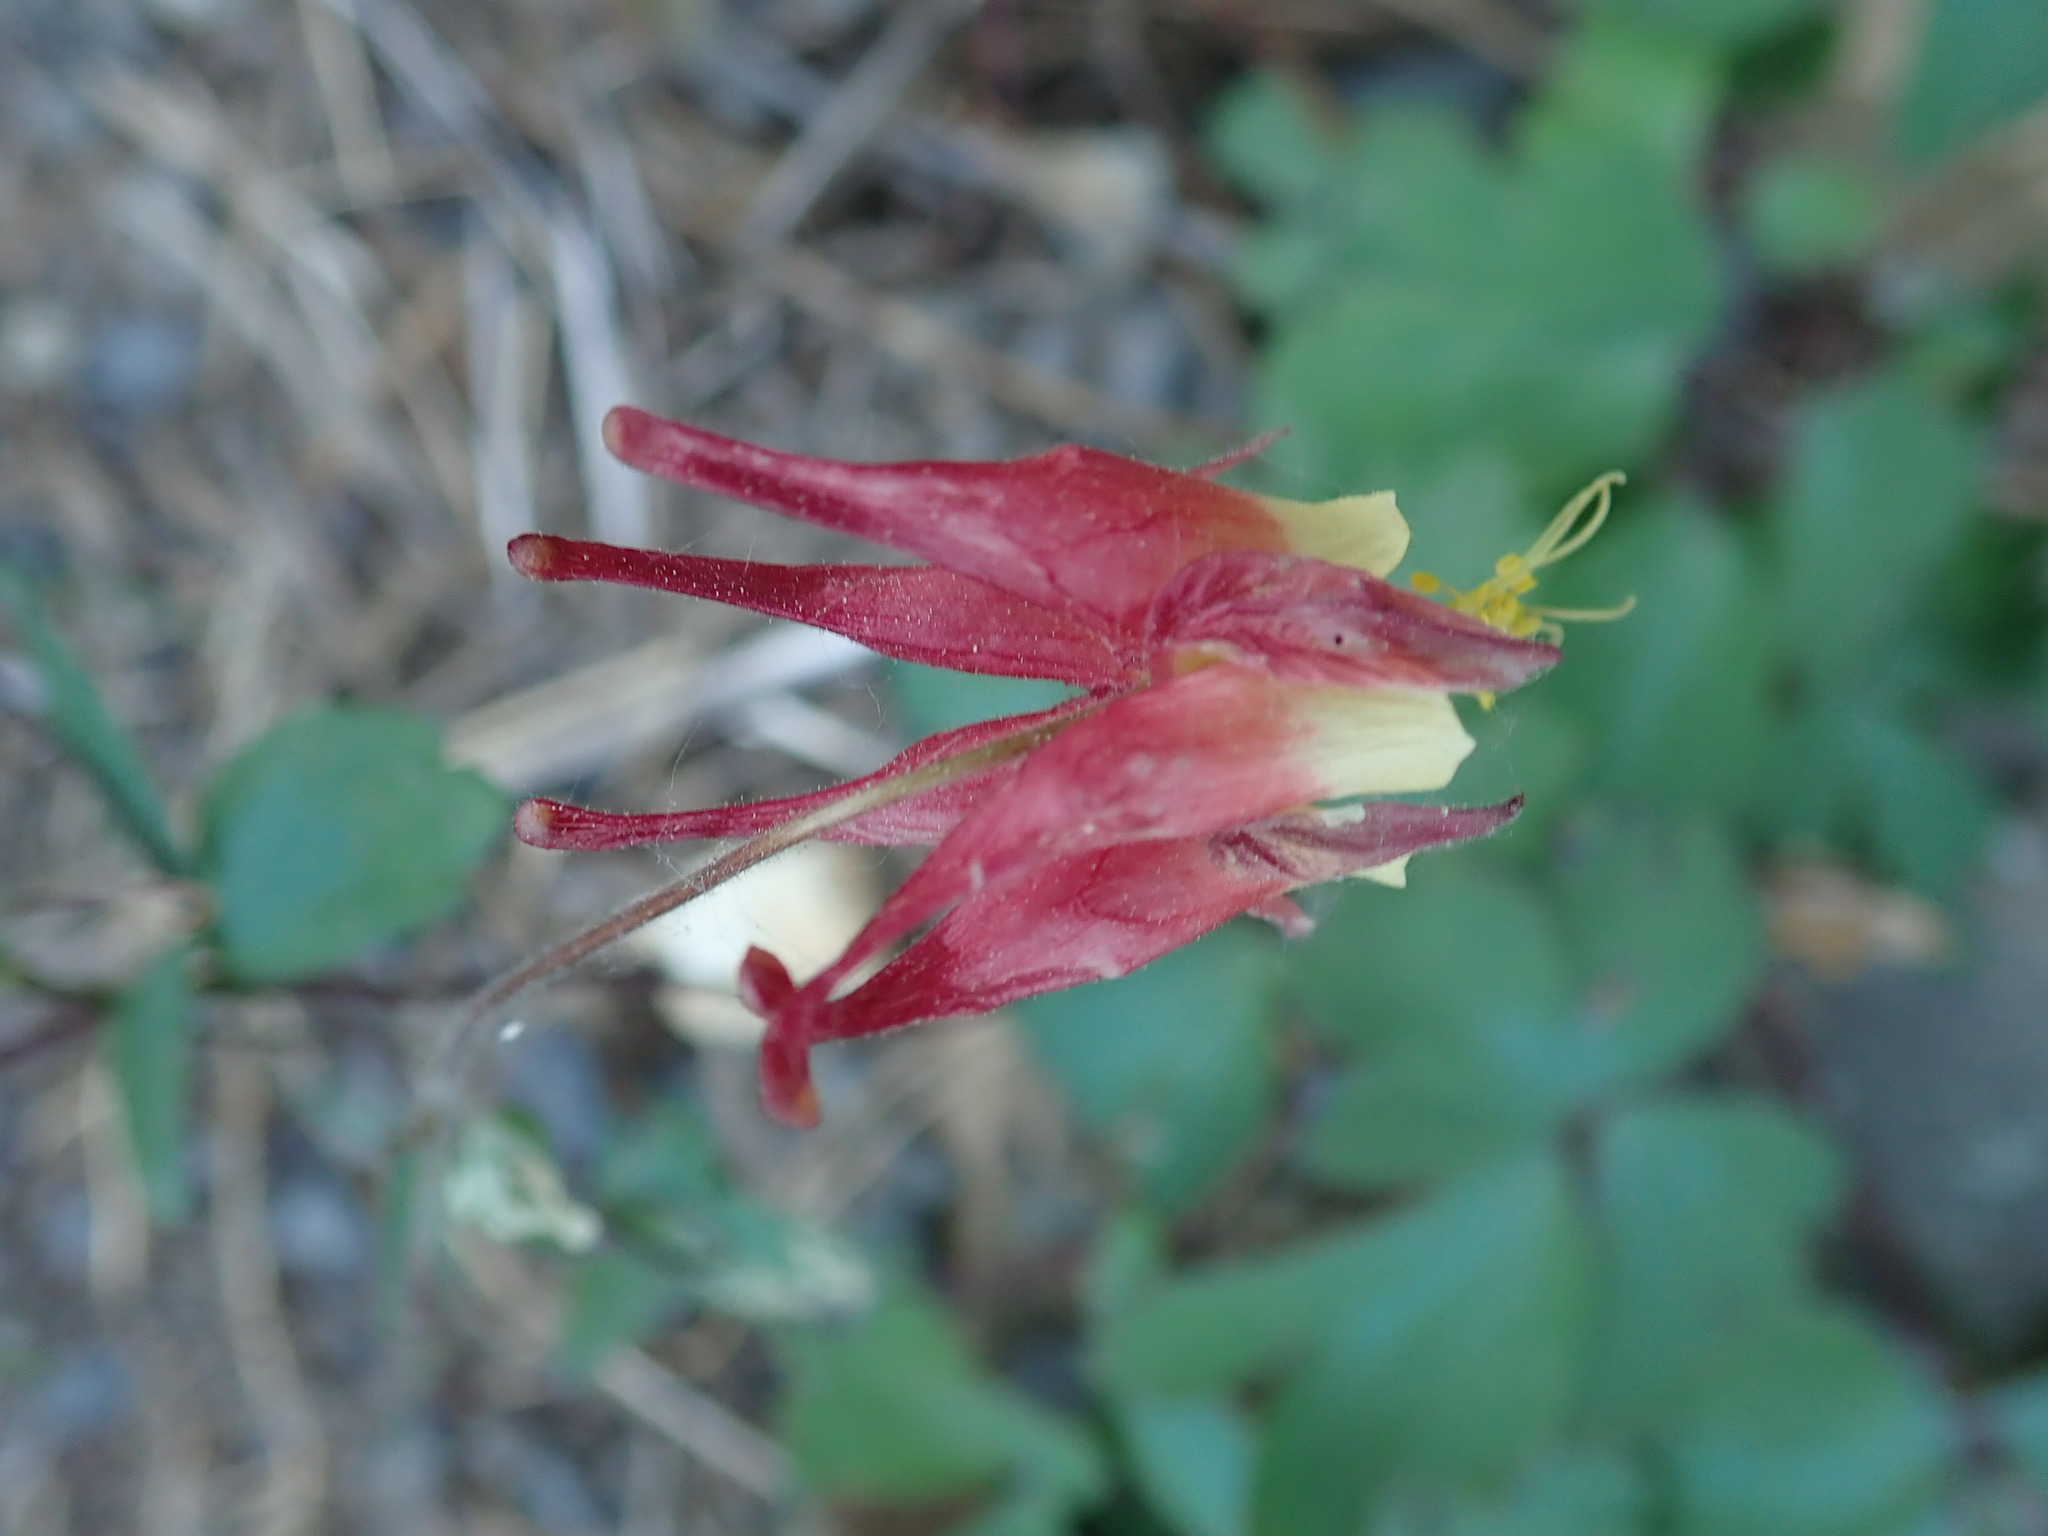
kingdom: Plantae
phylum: Tracheophyta
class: Magnoliopsida
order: Ranunculales
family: Ranunculaceae
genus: Aquilegia
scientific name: Aquilegia canadensis
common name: American columbine
